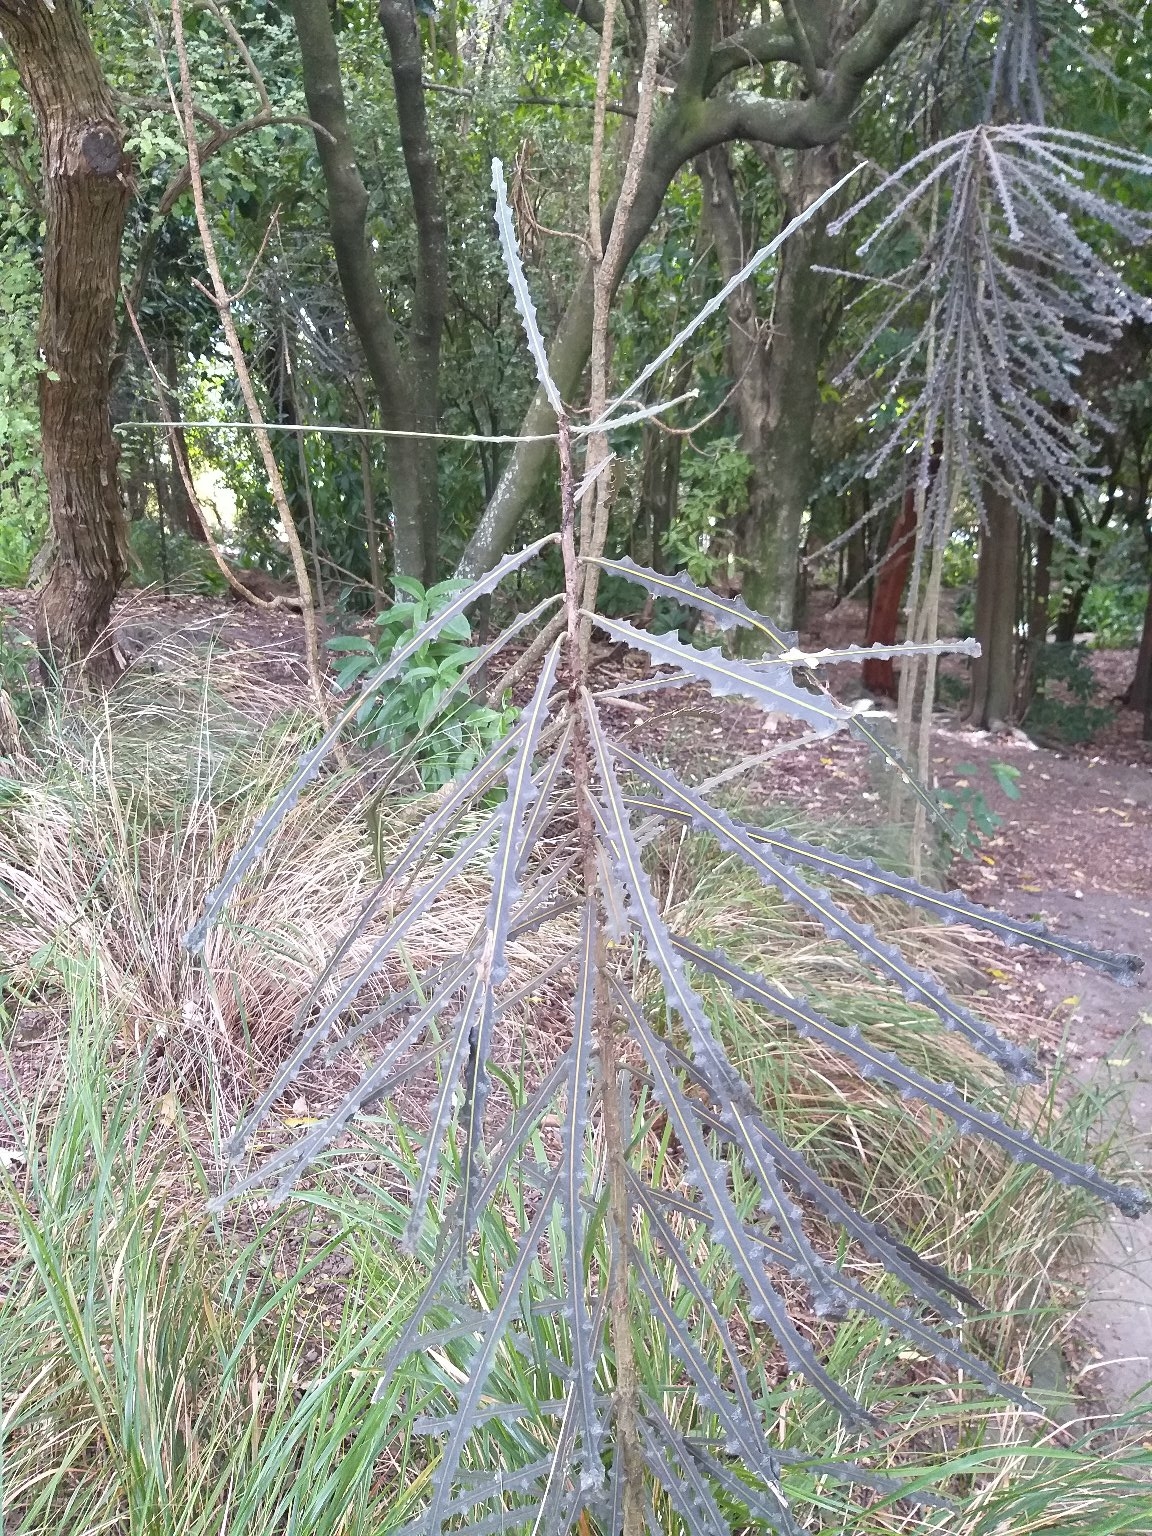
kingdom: Plantae
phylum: Tracheophyta
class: Magnoliopsida
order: Apiales
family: Araliaceae
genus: Pseudopanax
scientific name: Pseudopanax ferox
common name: Fierce lancewood
